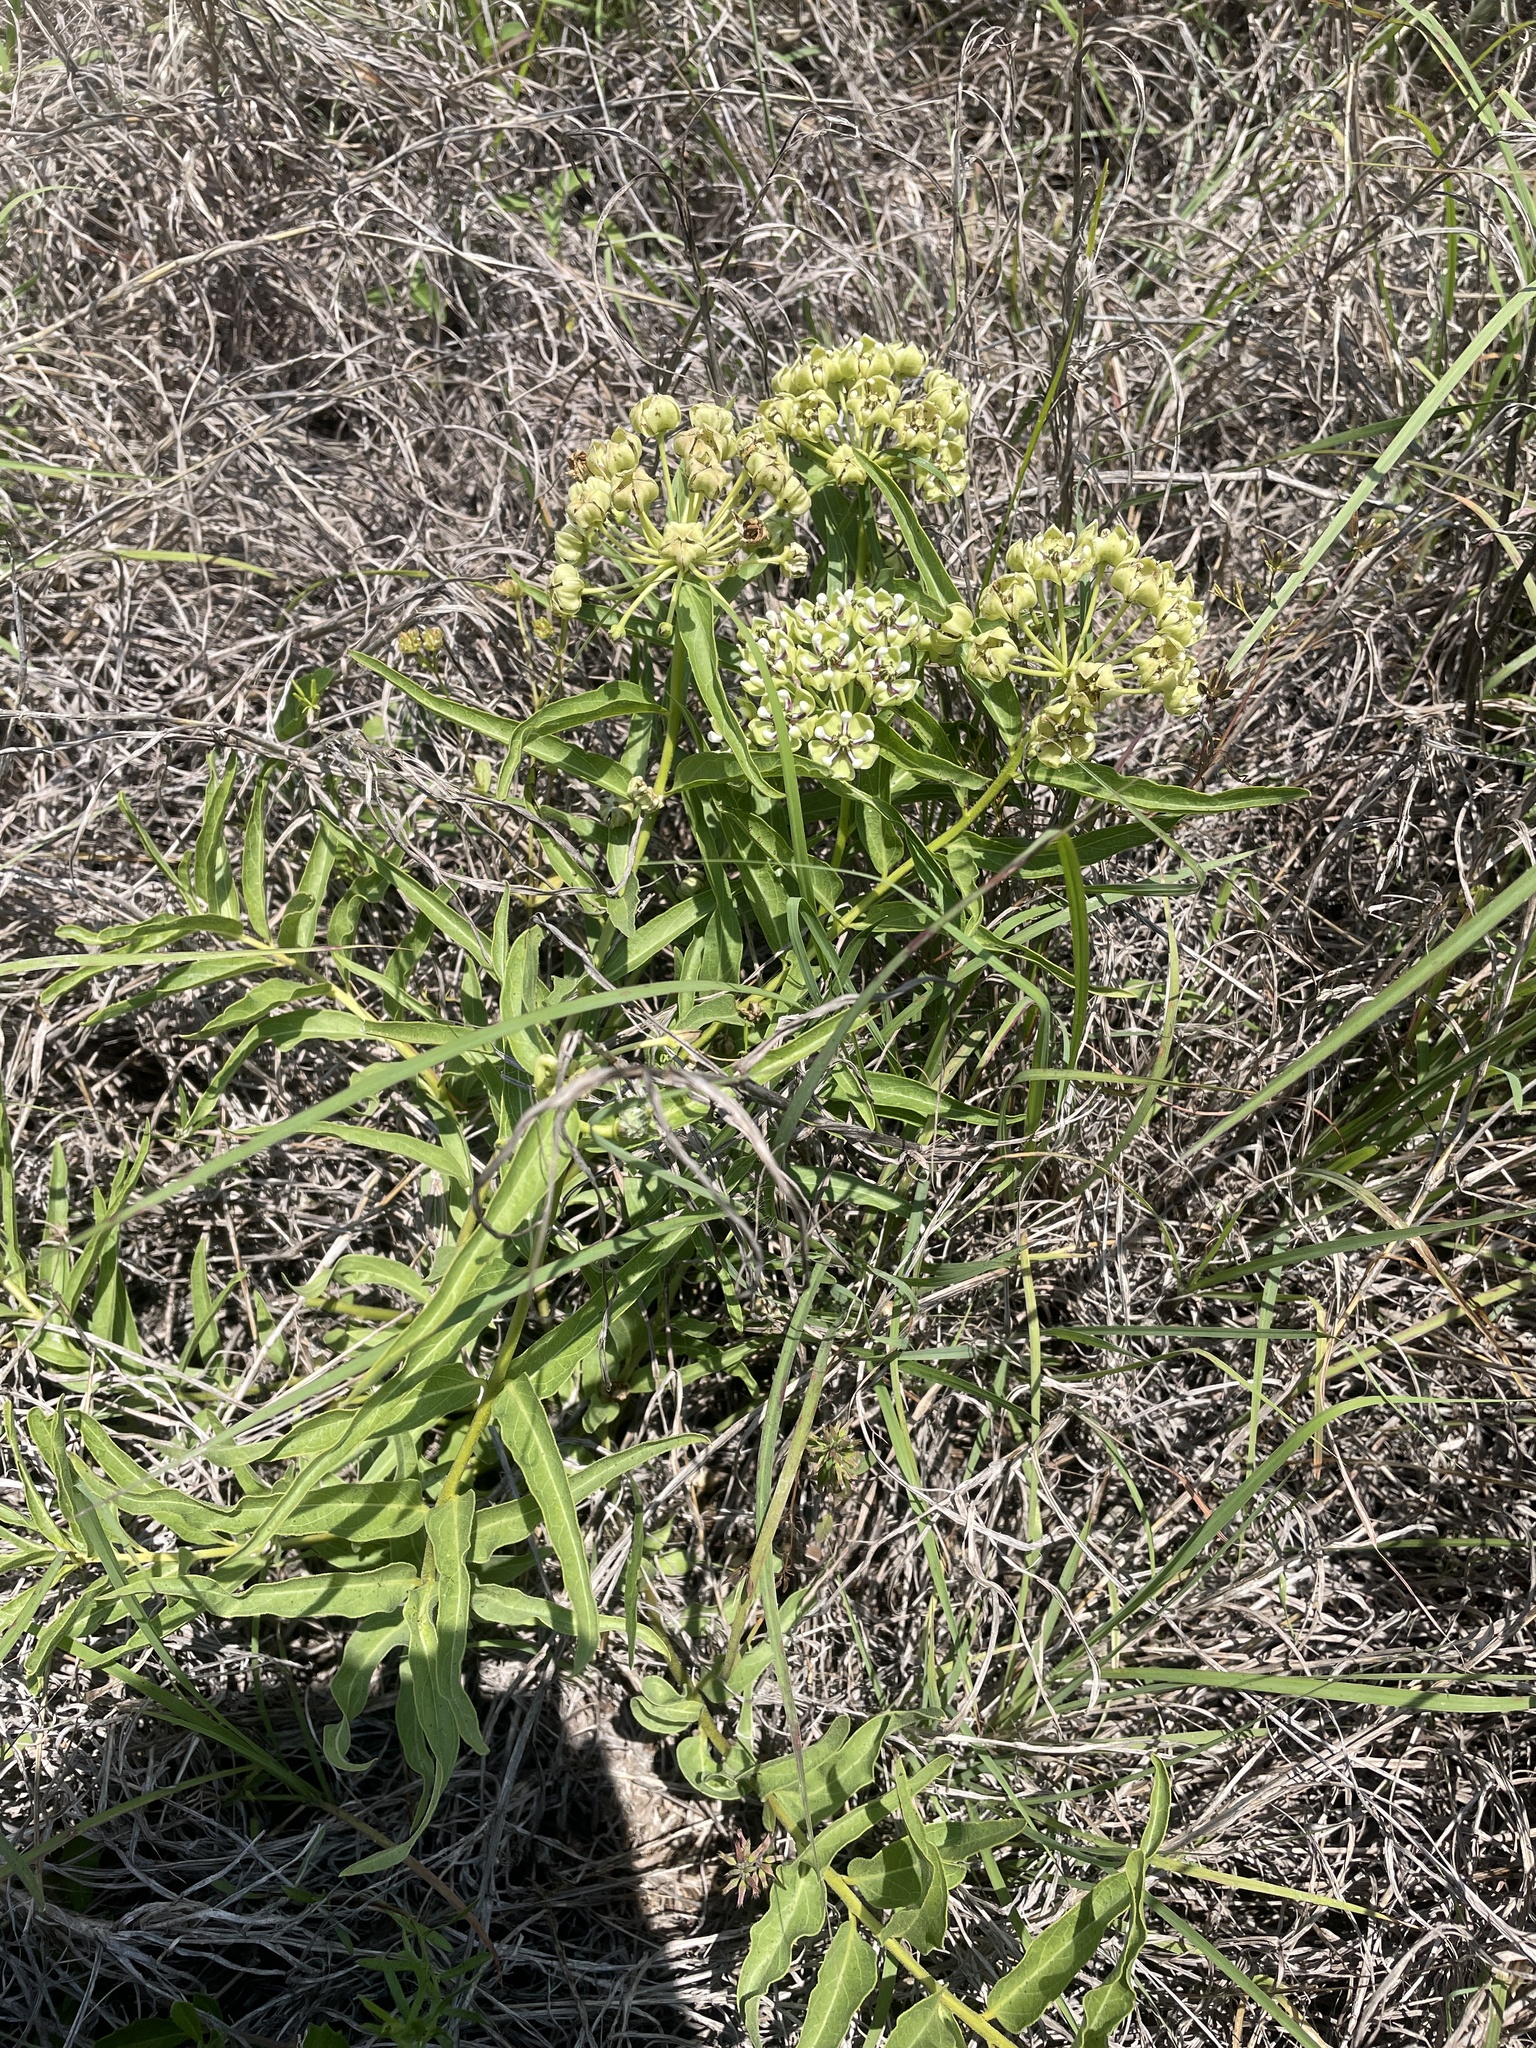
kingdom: Plantae
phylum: Tracheophyta
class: Magnoliopsida
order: Gentianales
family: Apocynaceae
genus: Asclepias
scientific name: Asclepias asperula
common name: Antelope horns
